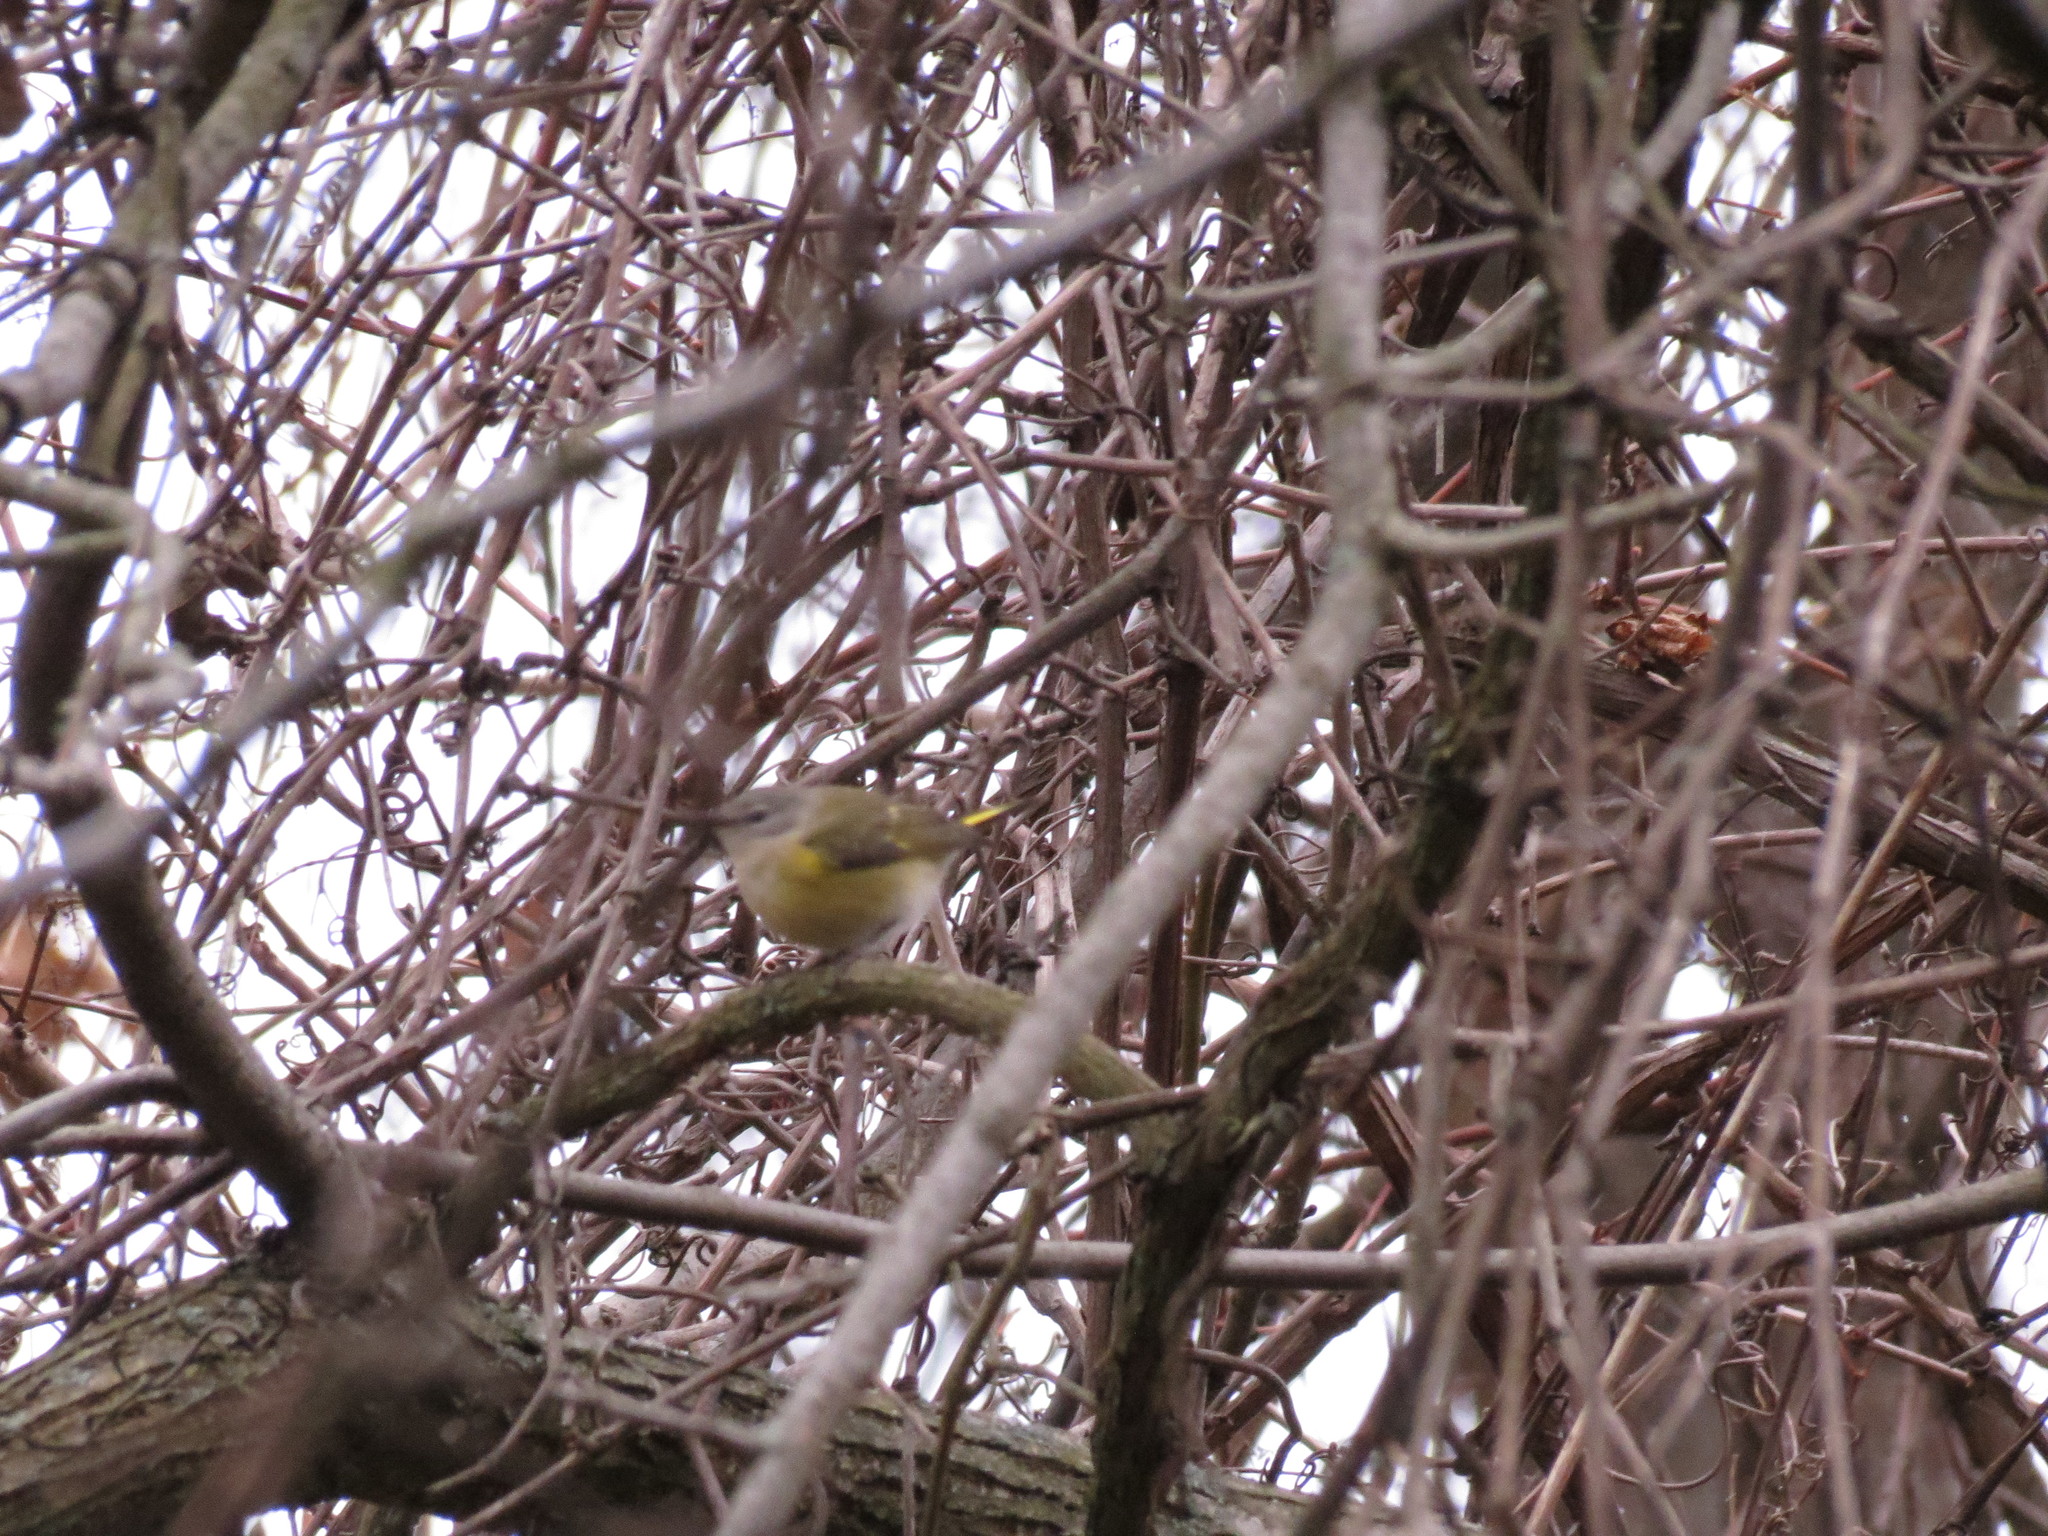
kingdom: Animalia
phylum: Chordata
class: Aves
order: Passeriformes
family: Parulidae
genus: Setophaga
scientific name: Setophaga ruticilla
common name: American redstart
